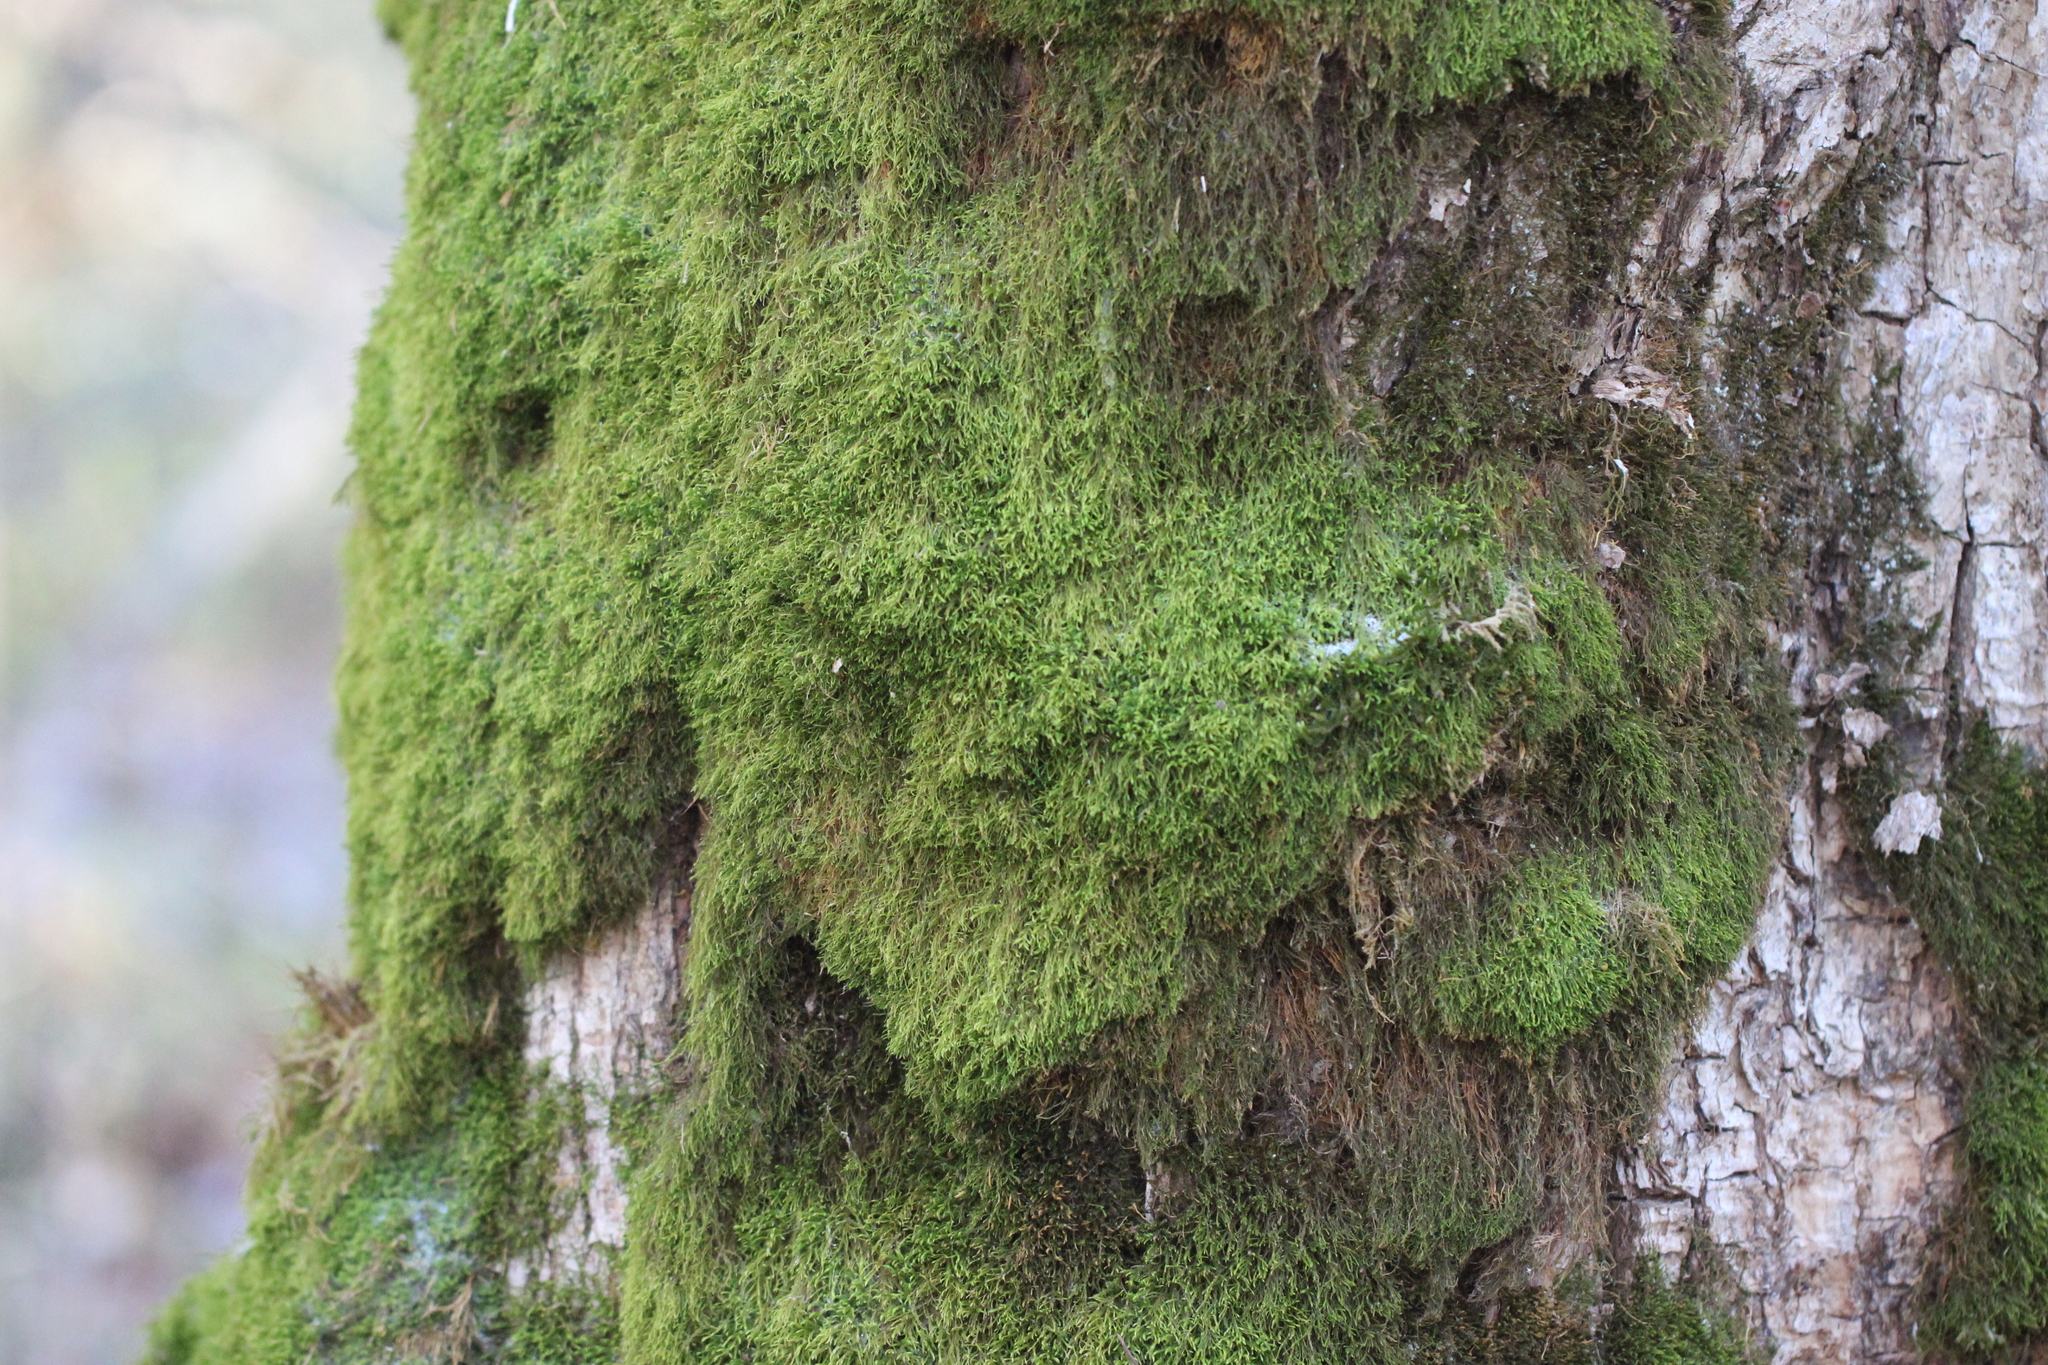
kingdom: Plantae
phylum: Bryophyta
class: Bryopsida
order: Hypnales
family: Neckeraceae
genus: Pseudanomodon
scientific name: Pseudanomodon attenuatus
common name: Tree-skirt moss
